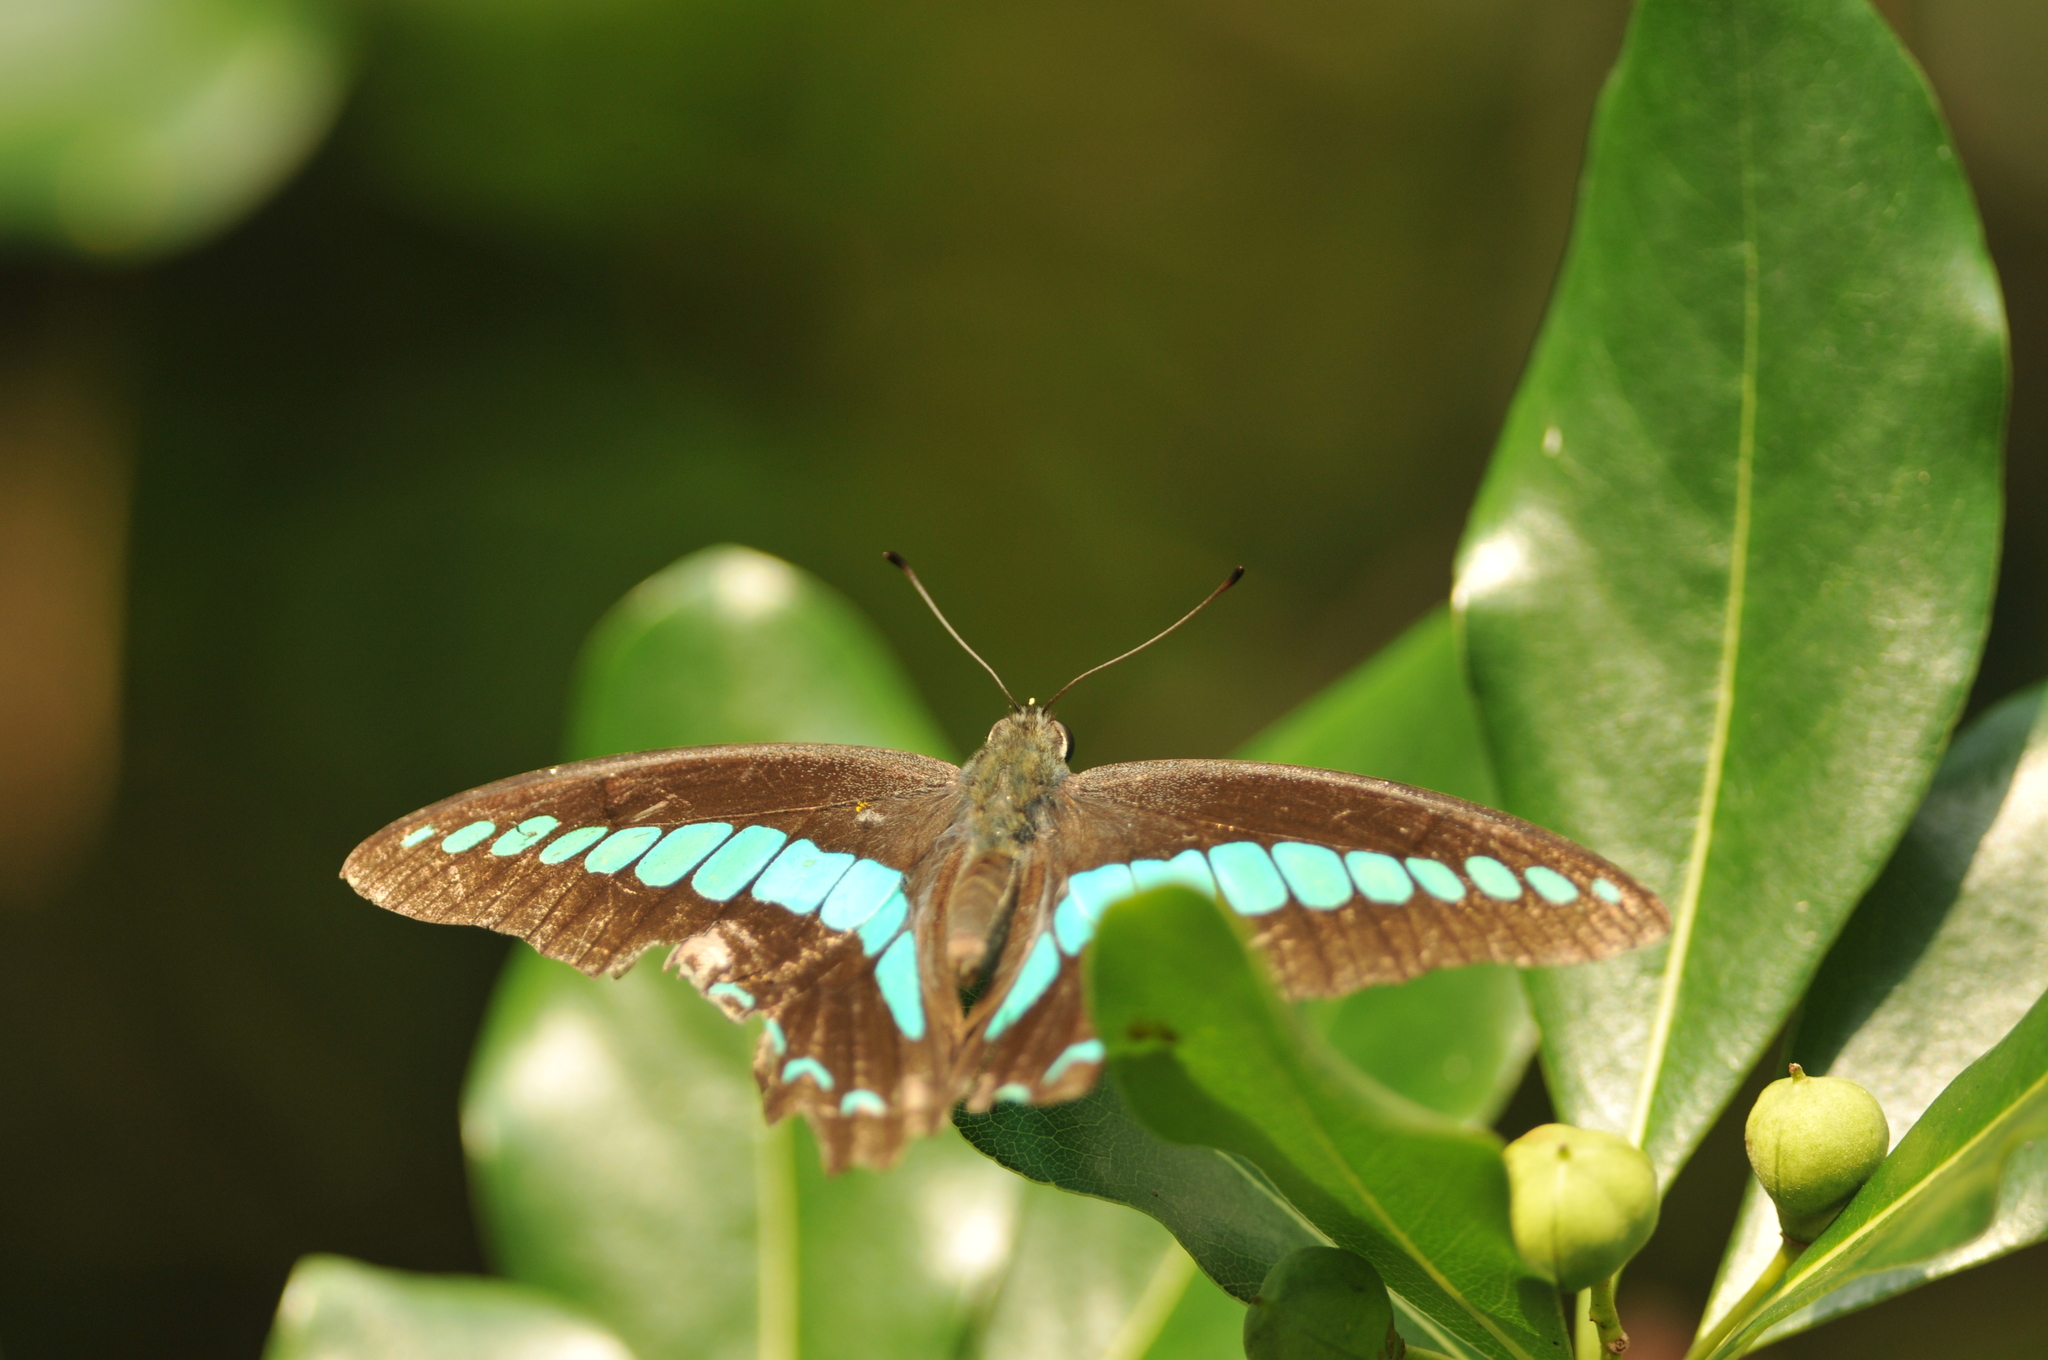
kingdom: Fungi
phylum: Ascomycota
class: Sordariomycetes
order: Microascales
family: Microascaceae
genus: Graphium
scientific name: Graphium sarpedon
